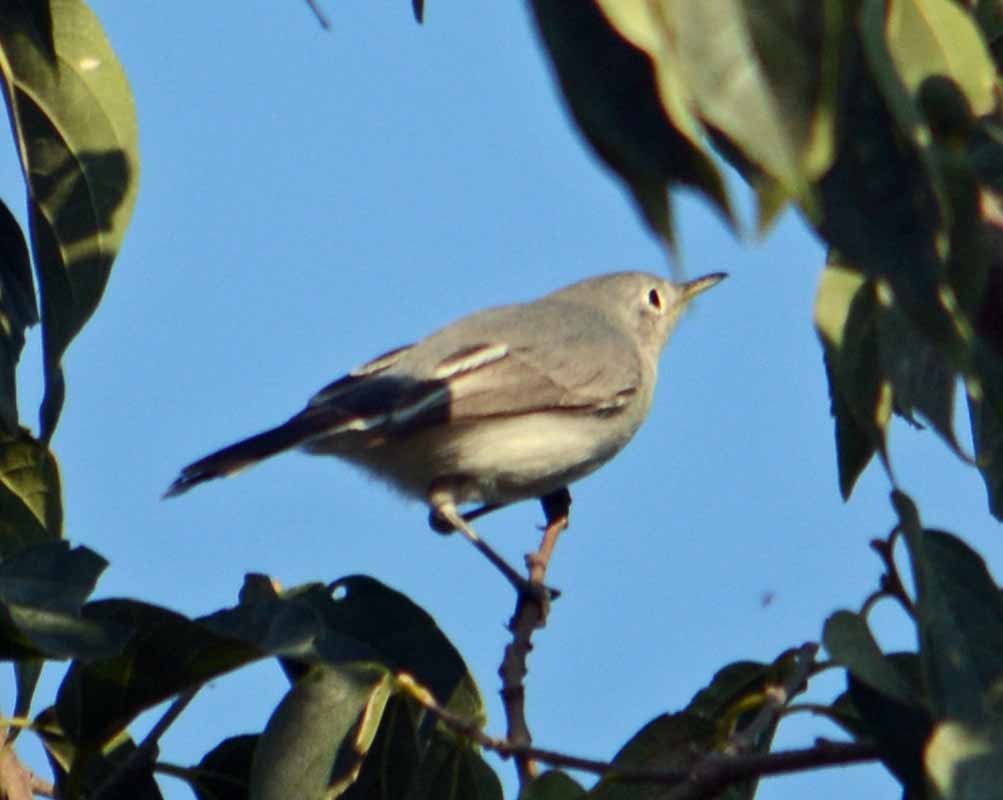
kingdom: Animalia
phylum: Chordata
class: Aves
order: Passeriformes
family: Polioptilidae
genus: Polioptila
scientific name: Polioptila caerulea
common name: Blue-gray gnatcatcher
